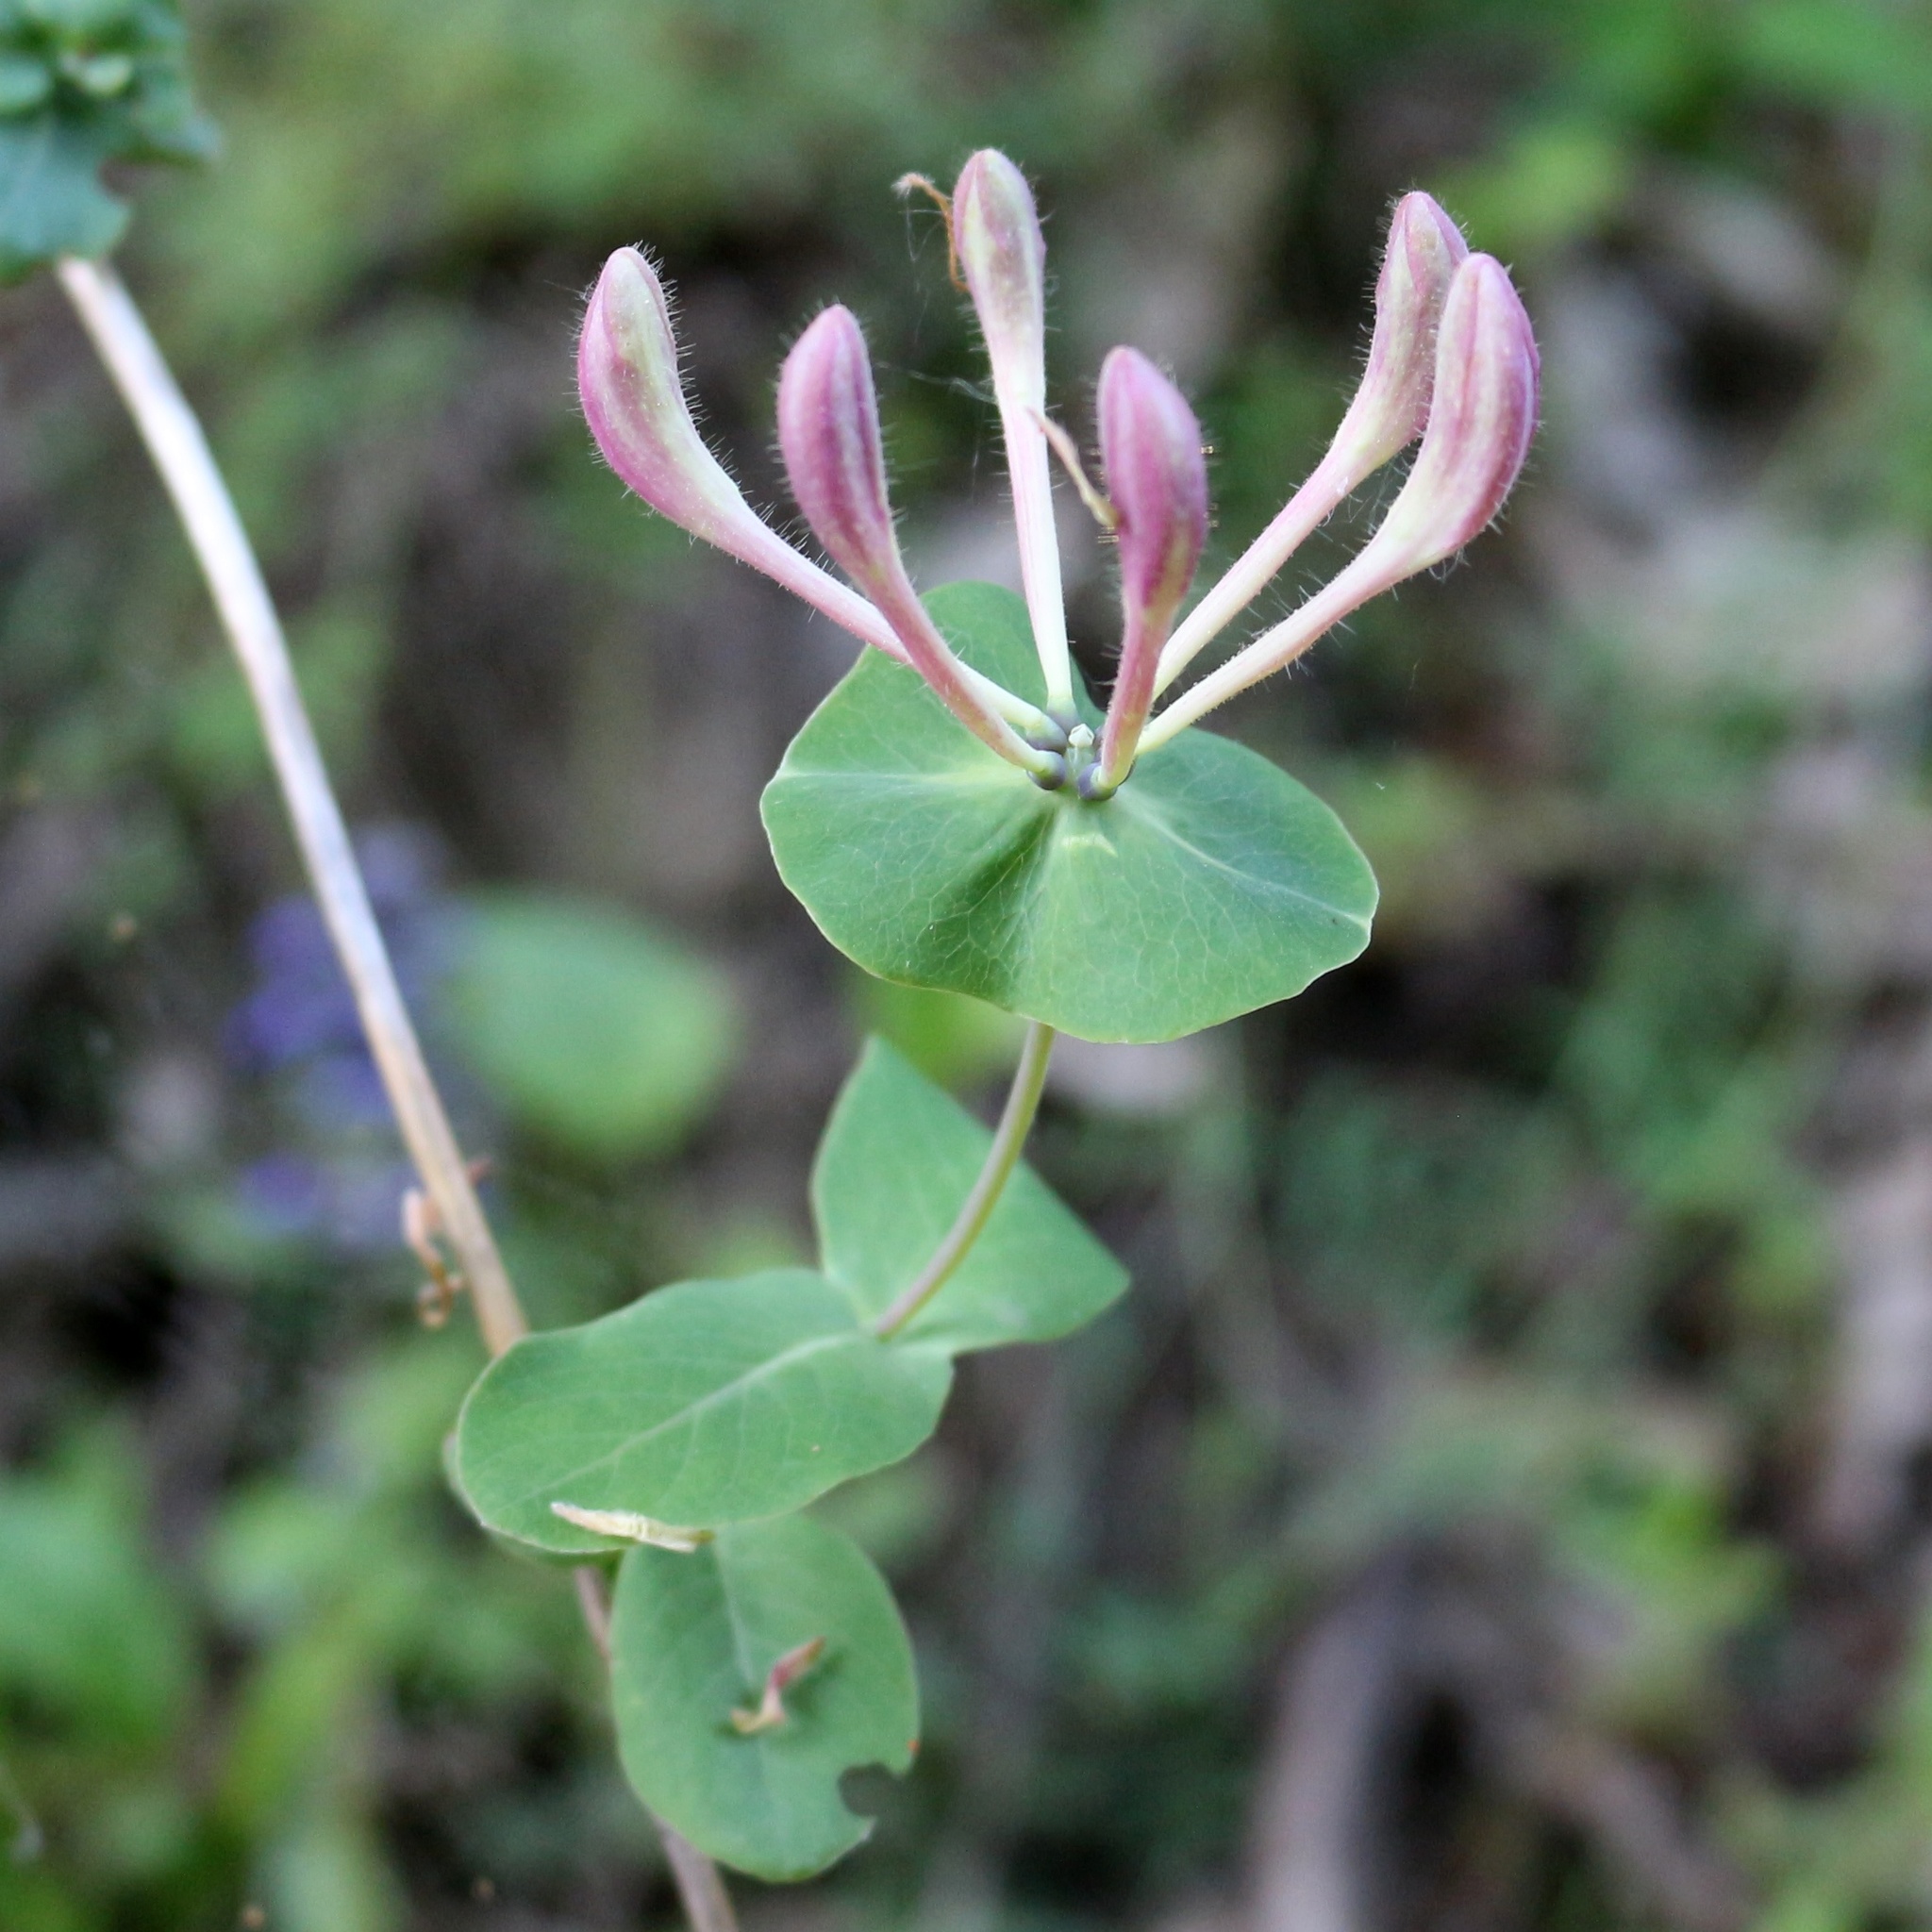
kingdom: Plantae
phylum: Tracheophyta
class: Magnoliopsida
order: Dipsacales
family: Caprifoliaceae
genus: Lonicera
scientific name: Lonicera caprifolium
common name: Perfoliate honeysuckle
